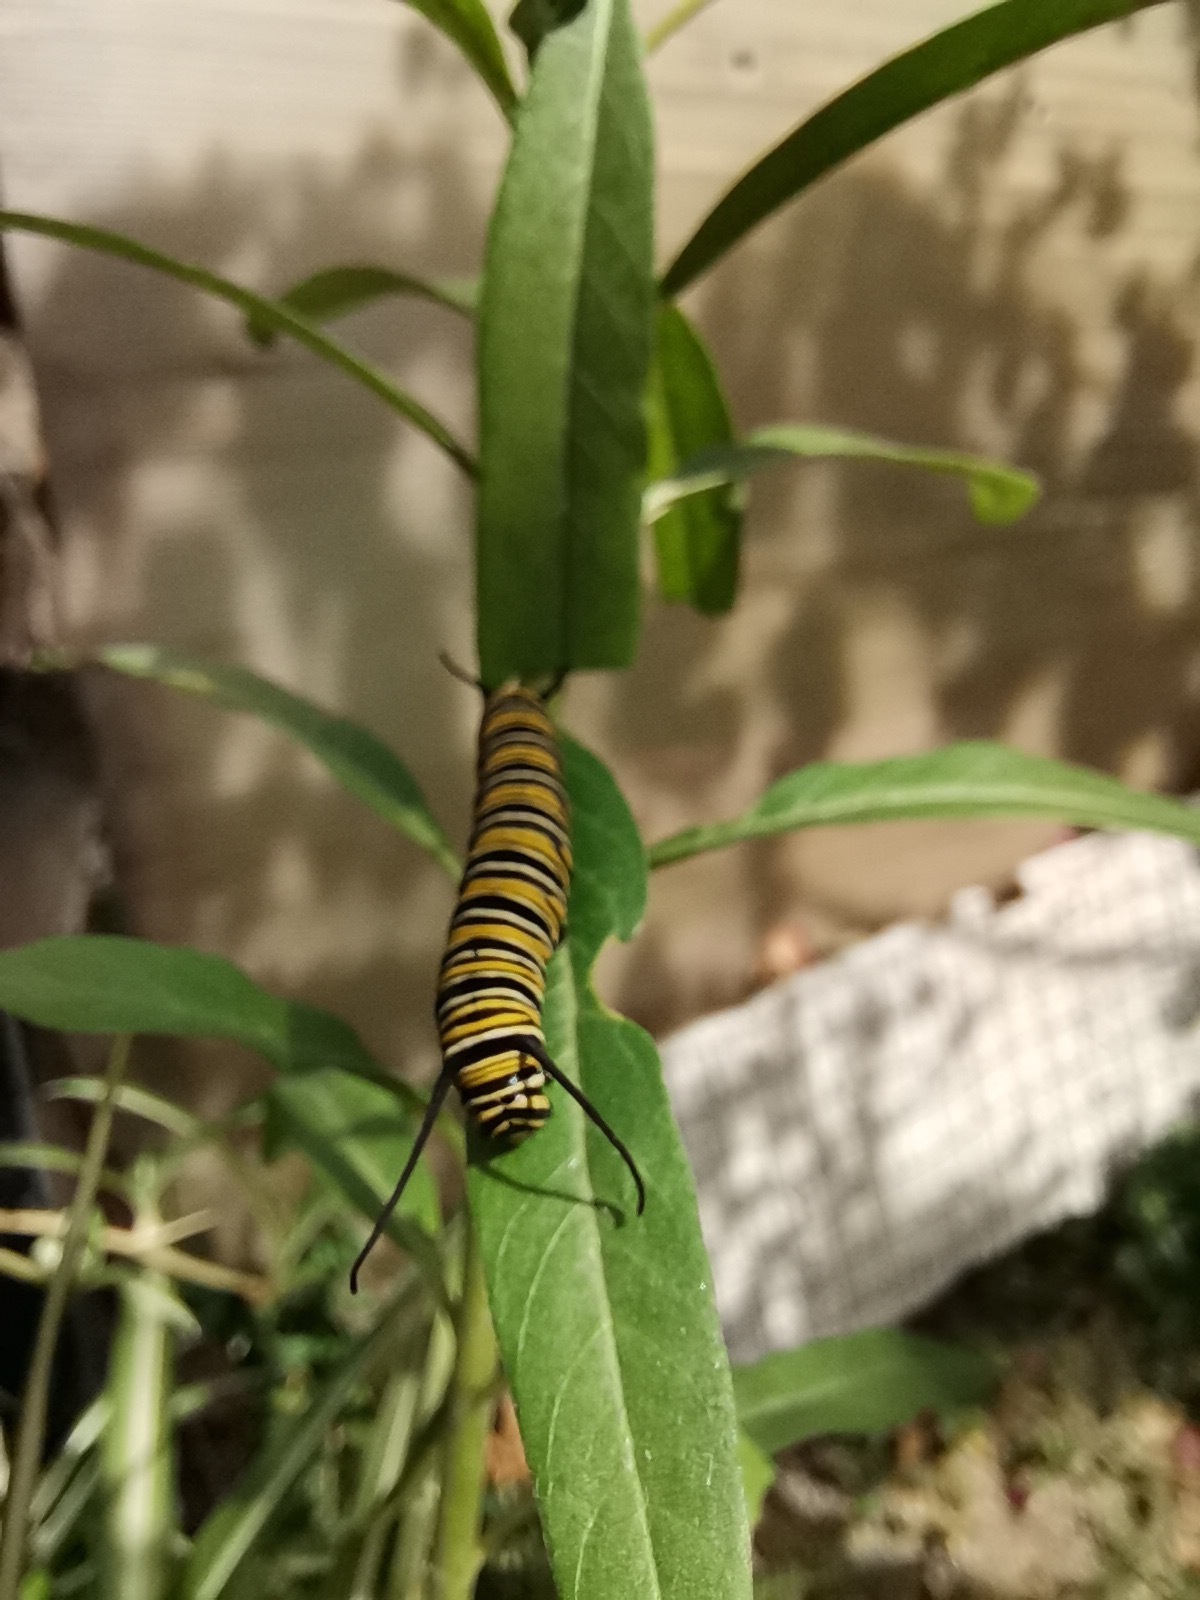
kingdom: Animalia
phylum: Arthropoda
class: Insecta
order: Lepidoptera
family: Nymphalidae
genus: Danaus
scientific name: Danaus plexippus
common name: Monarch
